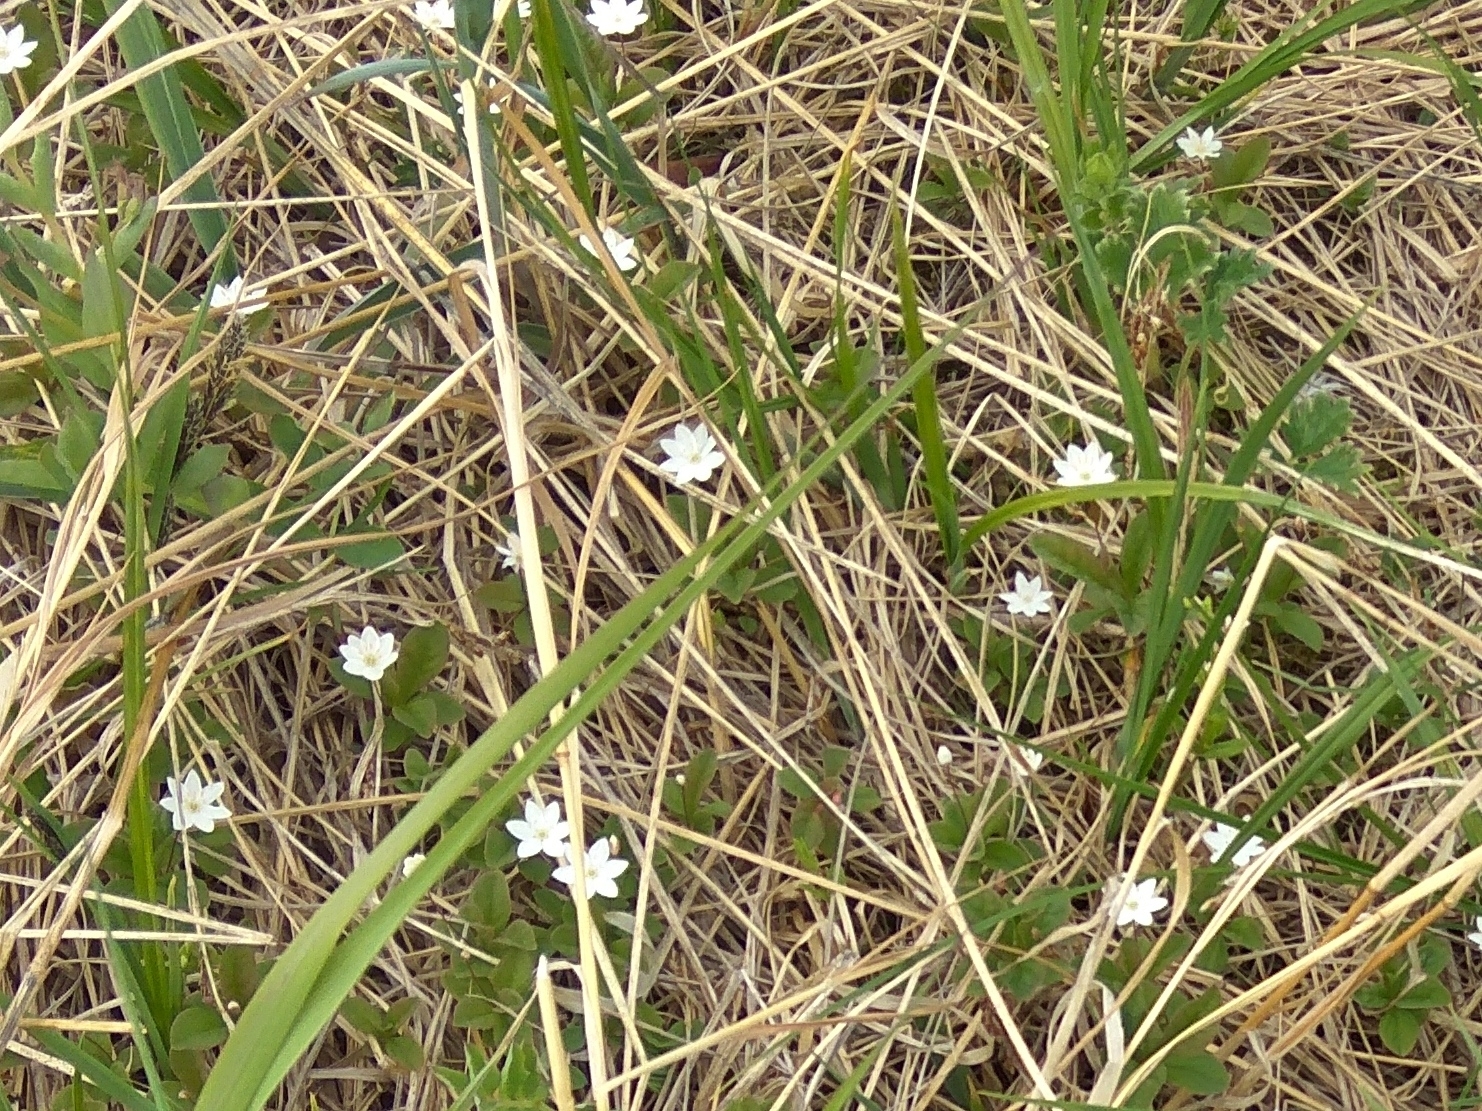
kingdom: Plantae
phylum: Tracheophyta
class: Magnoliopsida
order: Ericales
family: Primulaceae
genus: Lysimachia
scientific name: Lysimachia europaea
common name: Arctic starflower
